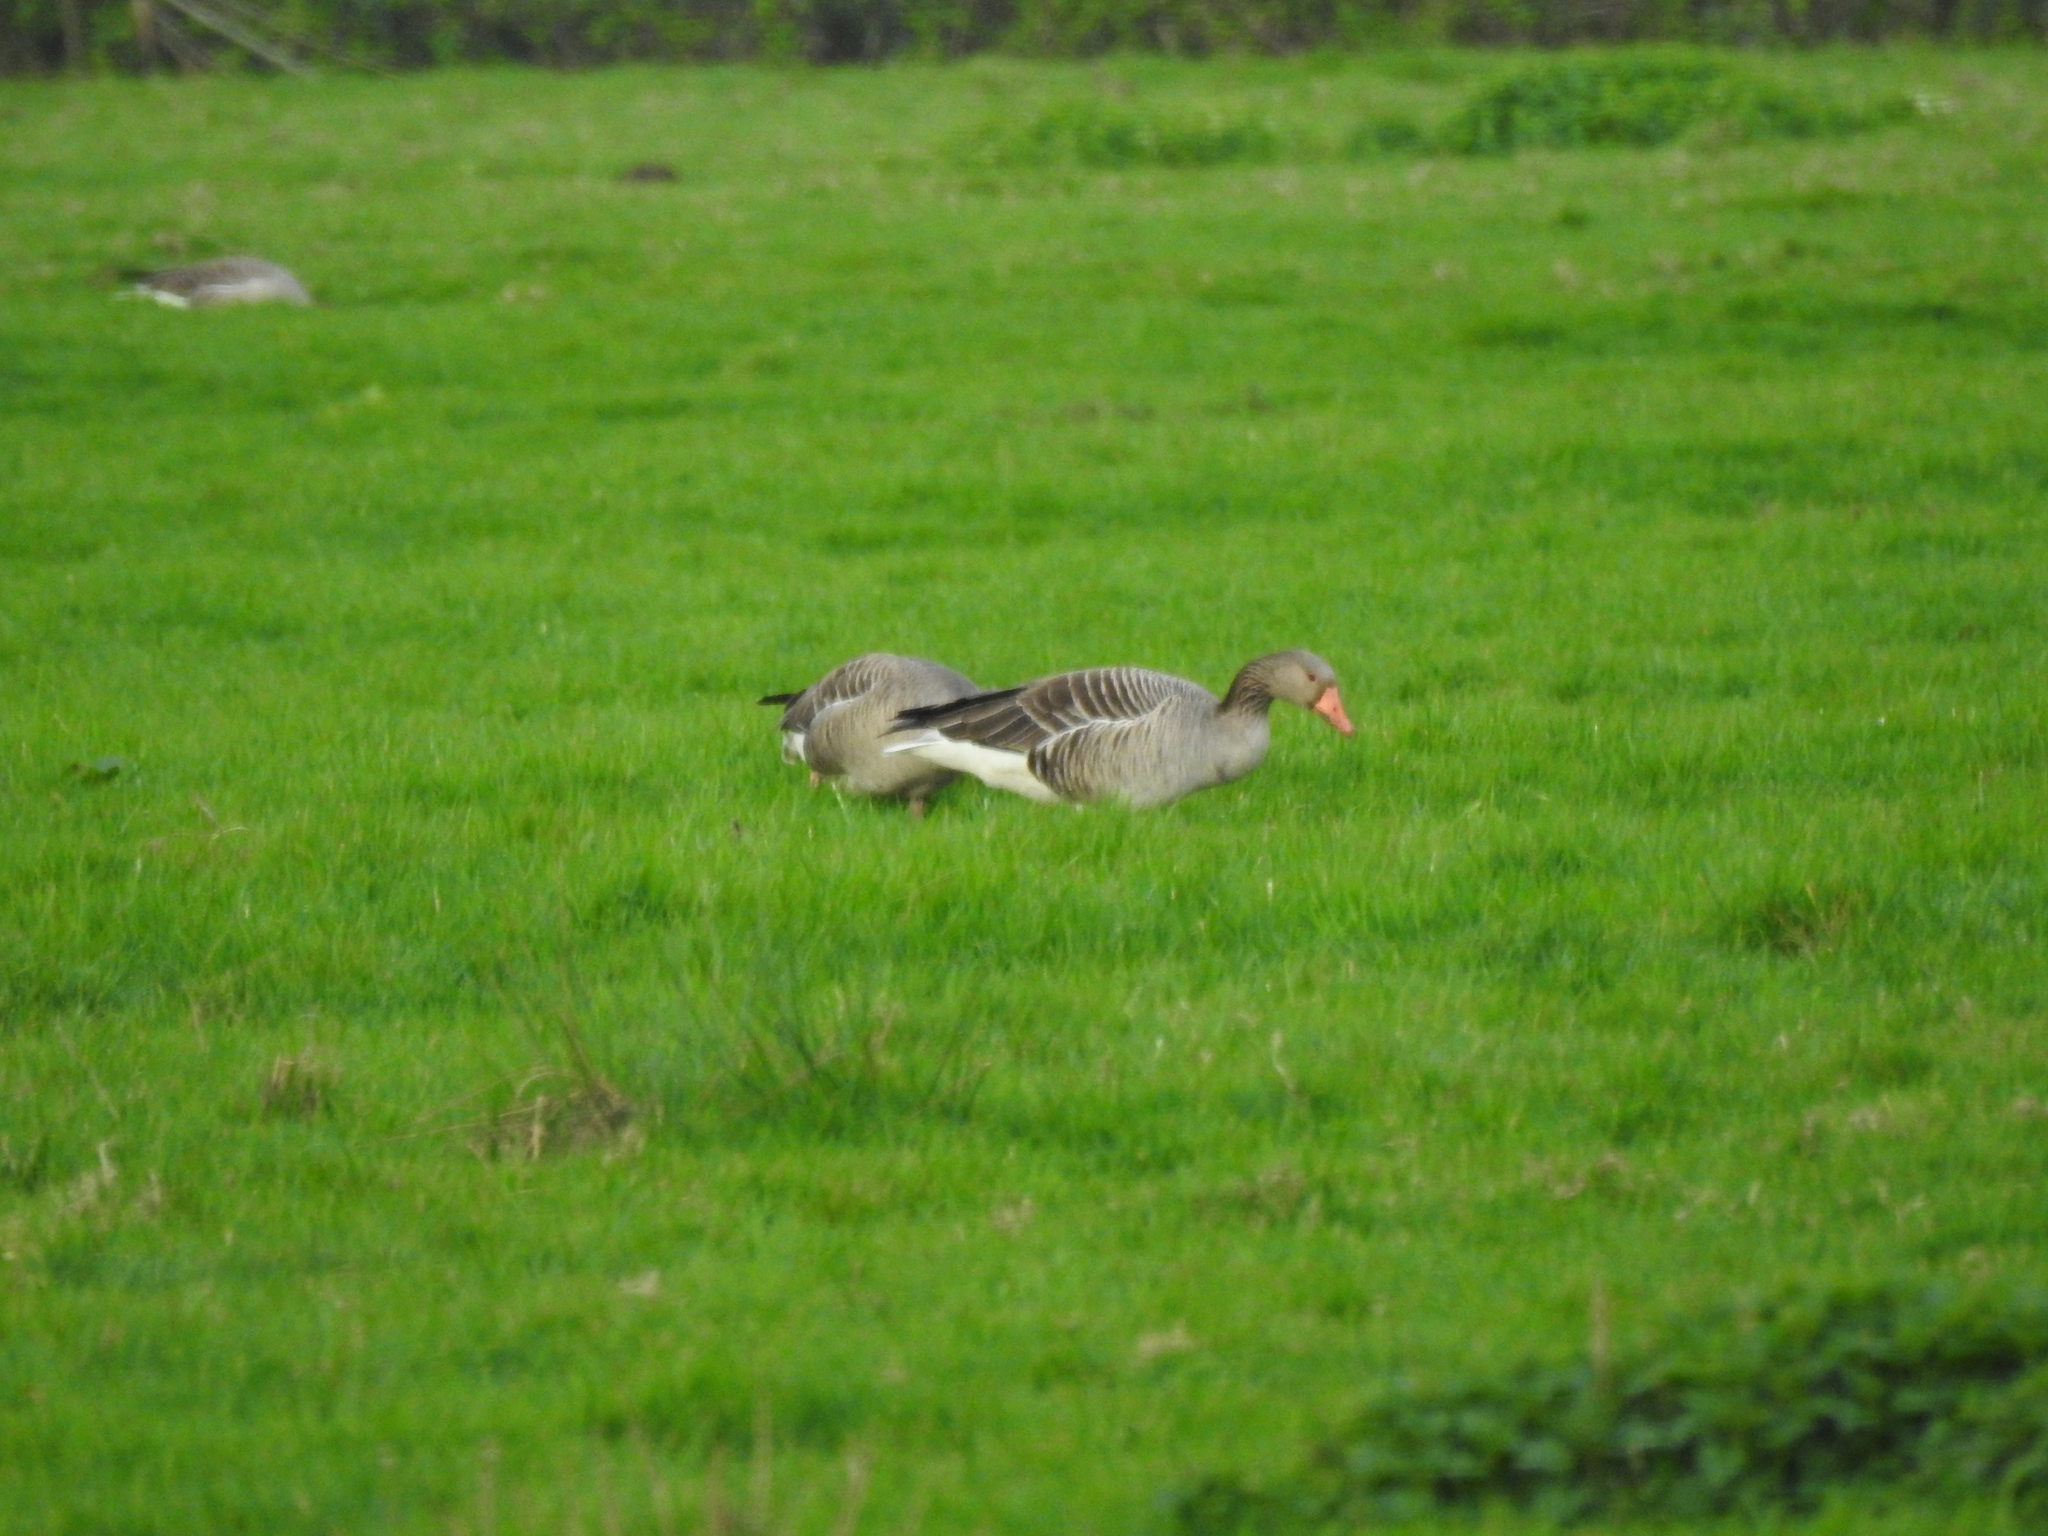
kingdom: Animalia
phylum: Chordata
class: Aves
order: Anseriformes
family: Anatidae
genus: Anser
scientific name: Anser anser
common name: Greylag goose
